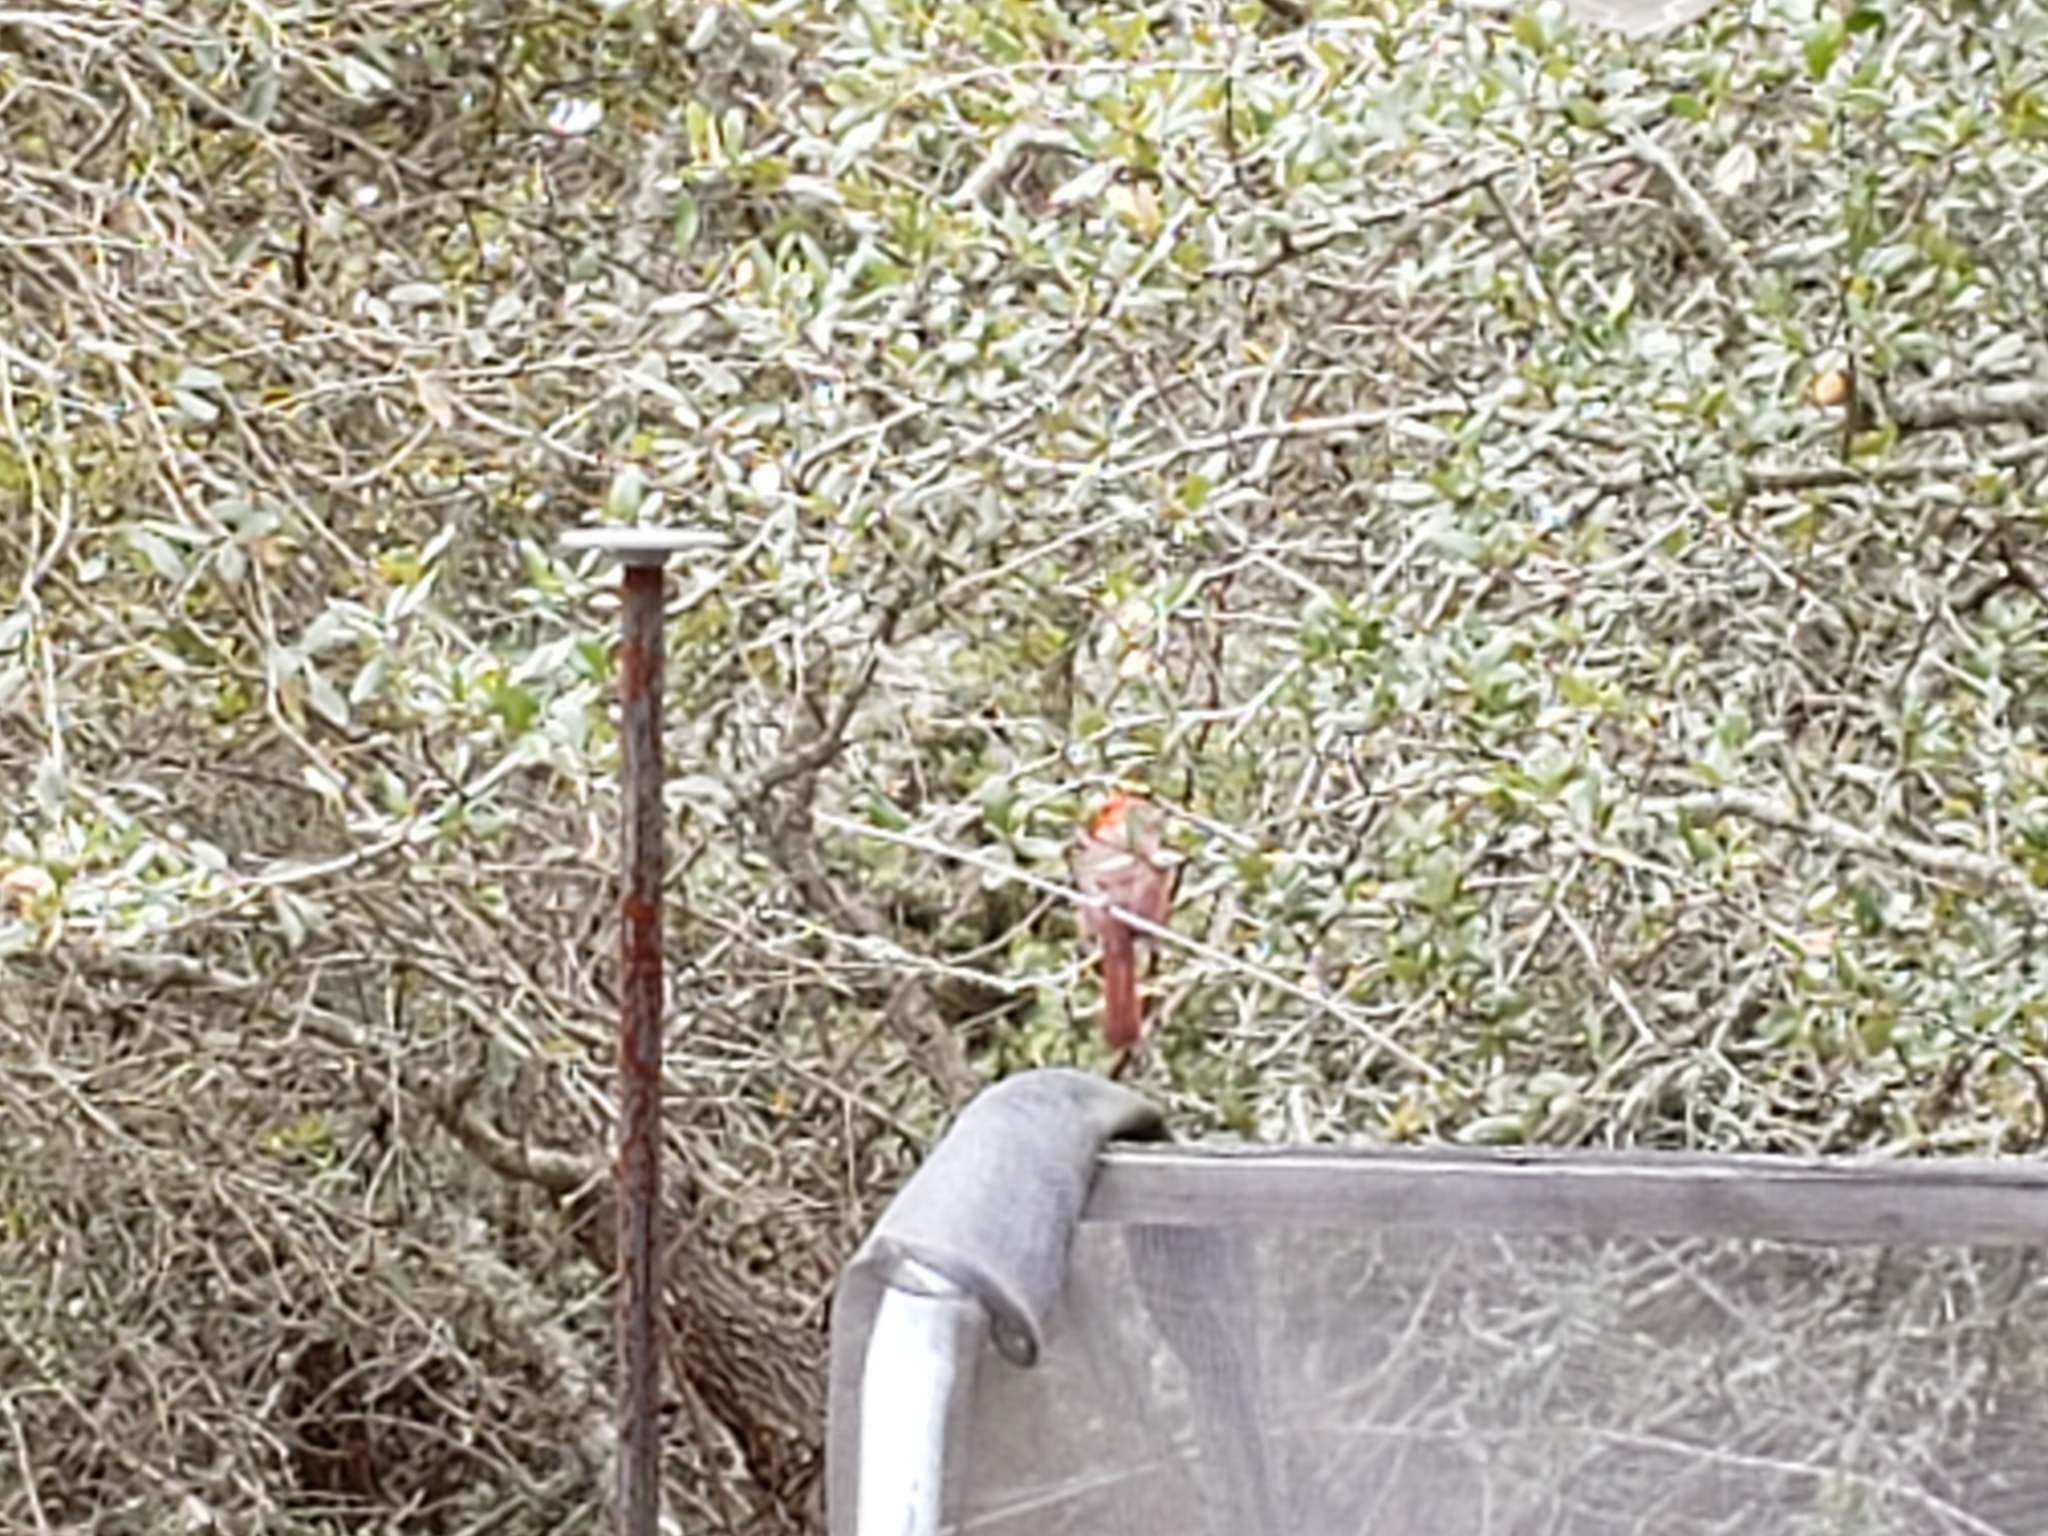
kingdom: Animalia
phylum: Chordata
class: Aves
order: Passeriformes
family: Cardinalidae
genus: Cardinalis
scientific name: Cardinalis cardinalis
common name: Northern cardinal
